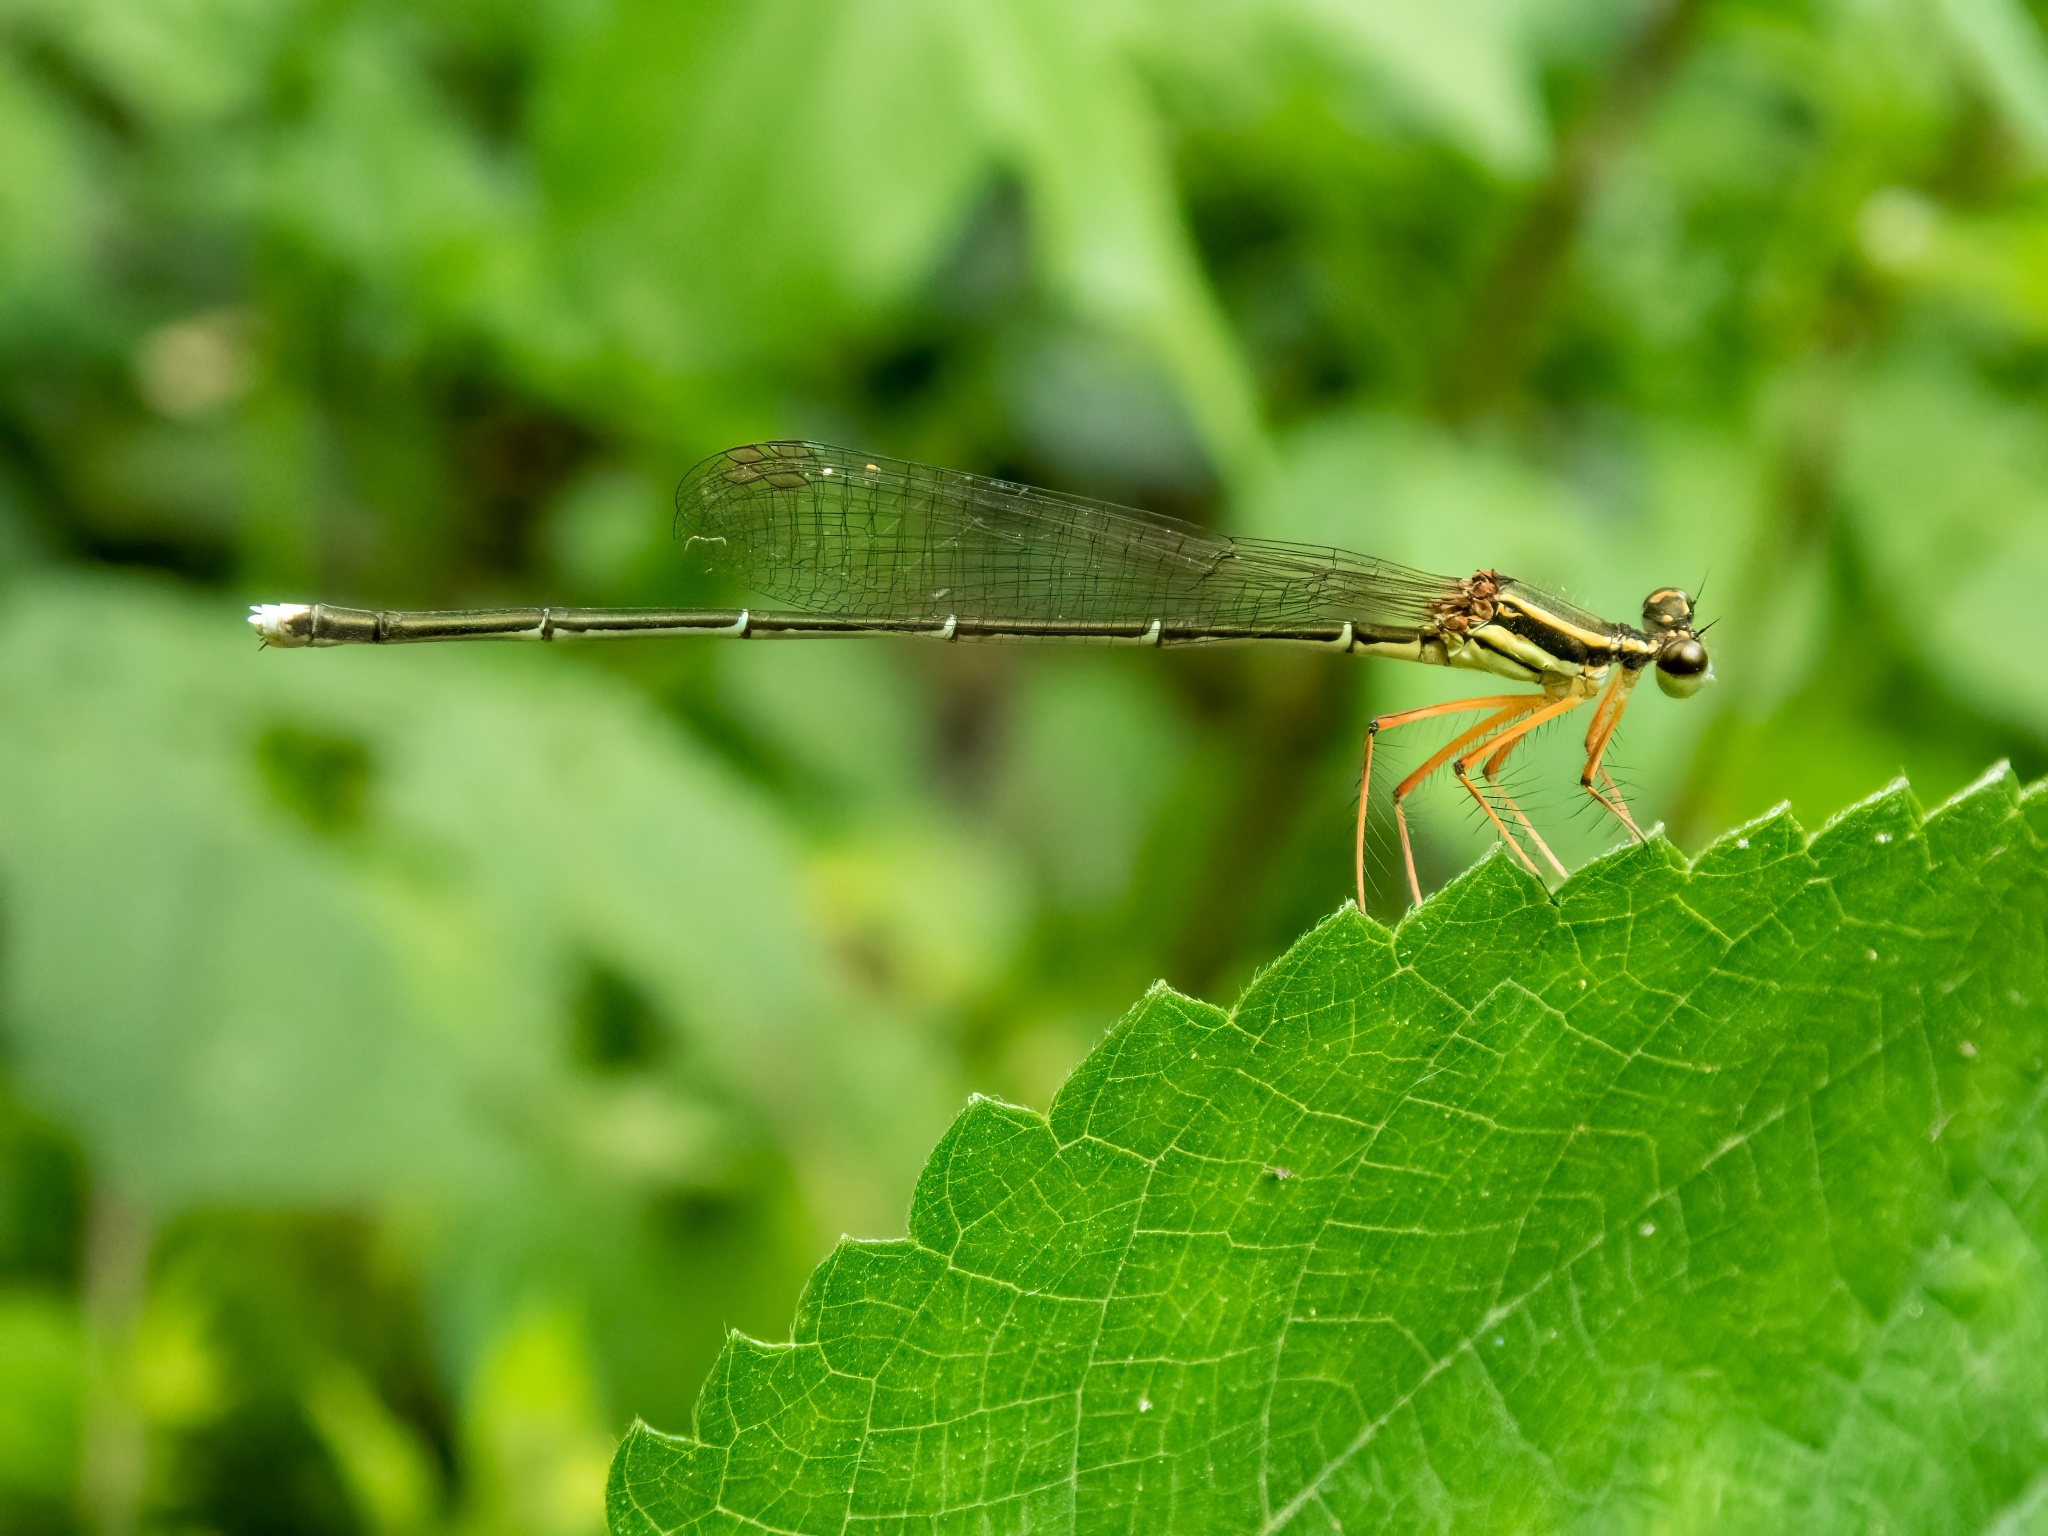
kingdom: Animalia
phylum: Arthropoda
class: Insecta
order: Odonata
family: Platycnemididae
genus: Copera
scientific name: Copera marginipes
